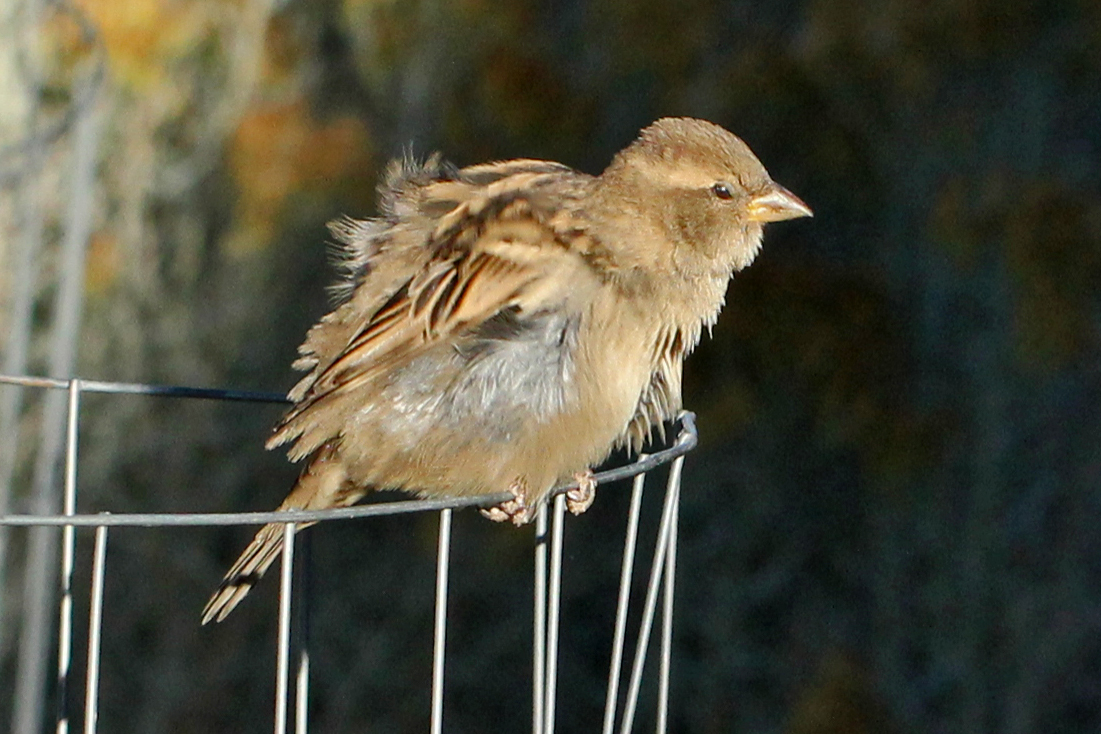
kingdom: Animalia
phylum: Chordata
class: Aves
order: Passeriformes
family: Passeridae
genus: Passer
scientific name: Passer domesticus
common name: House sparrow
